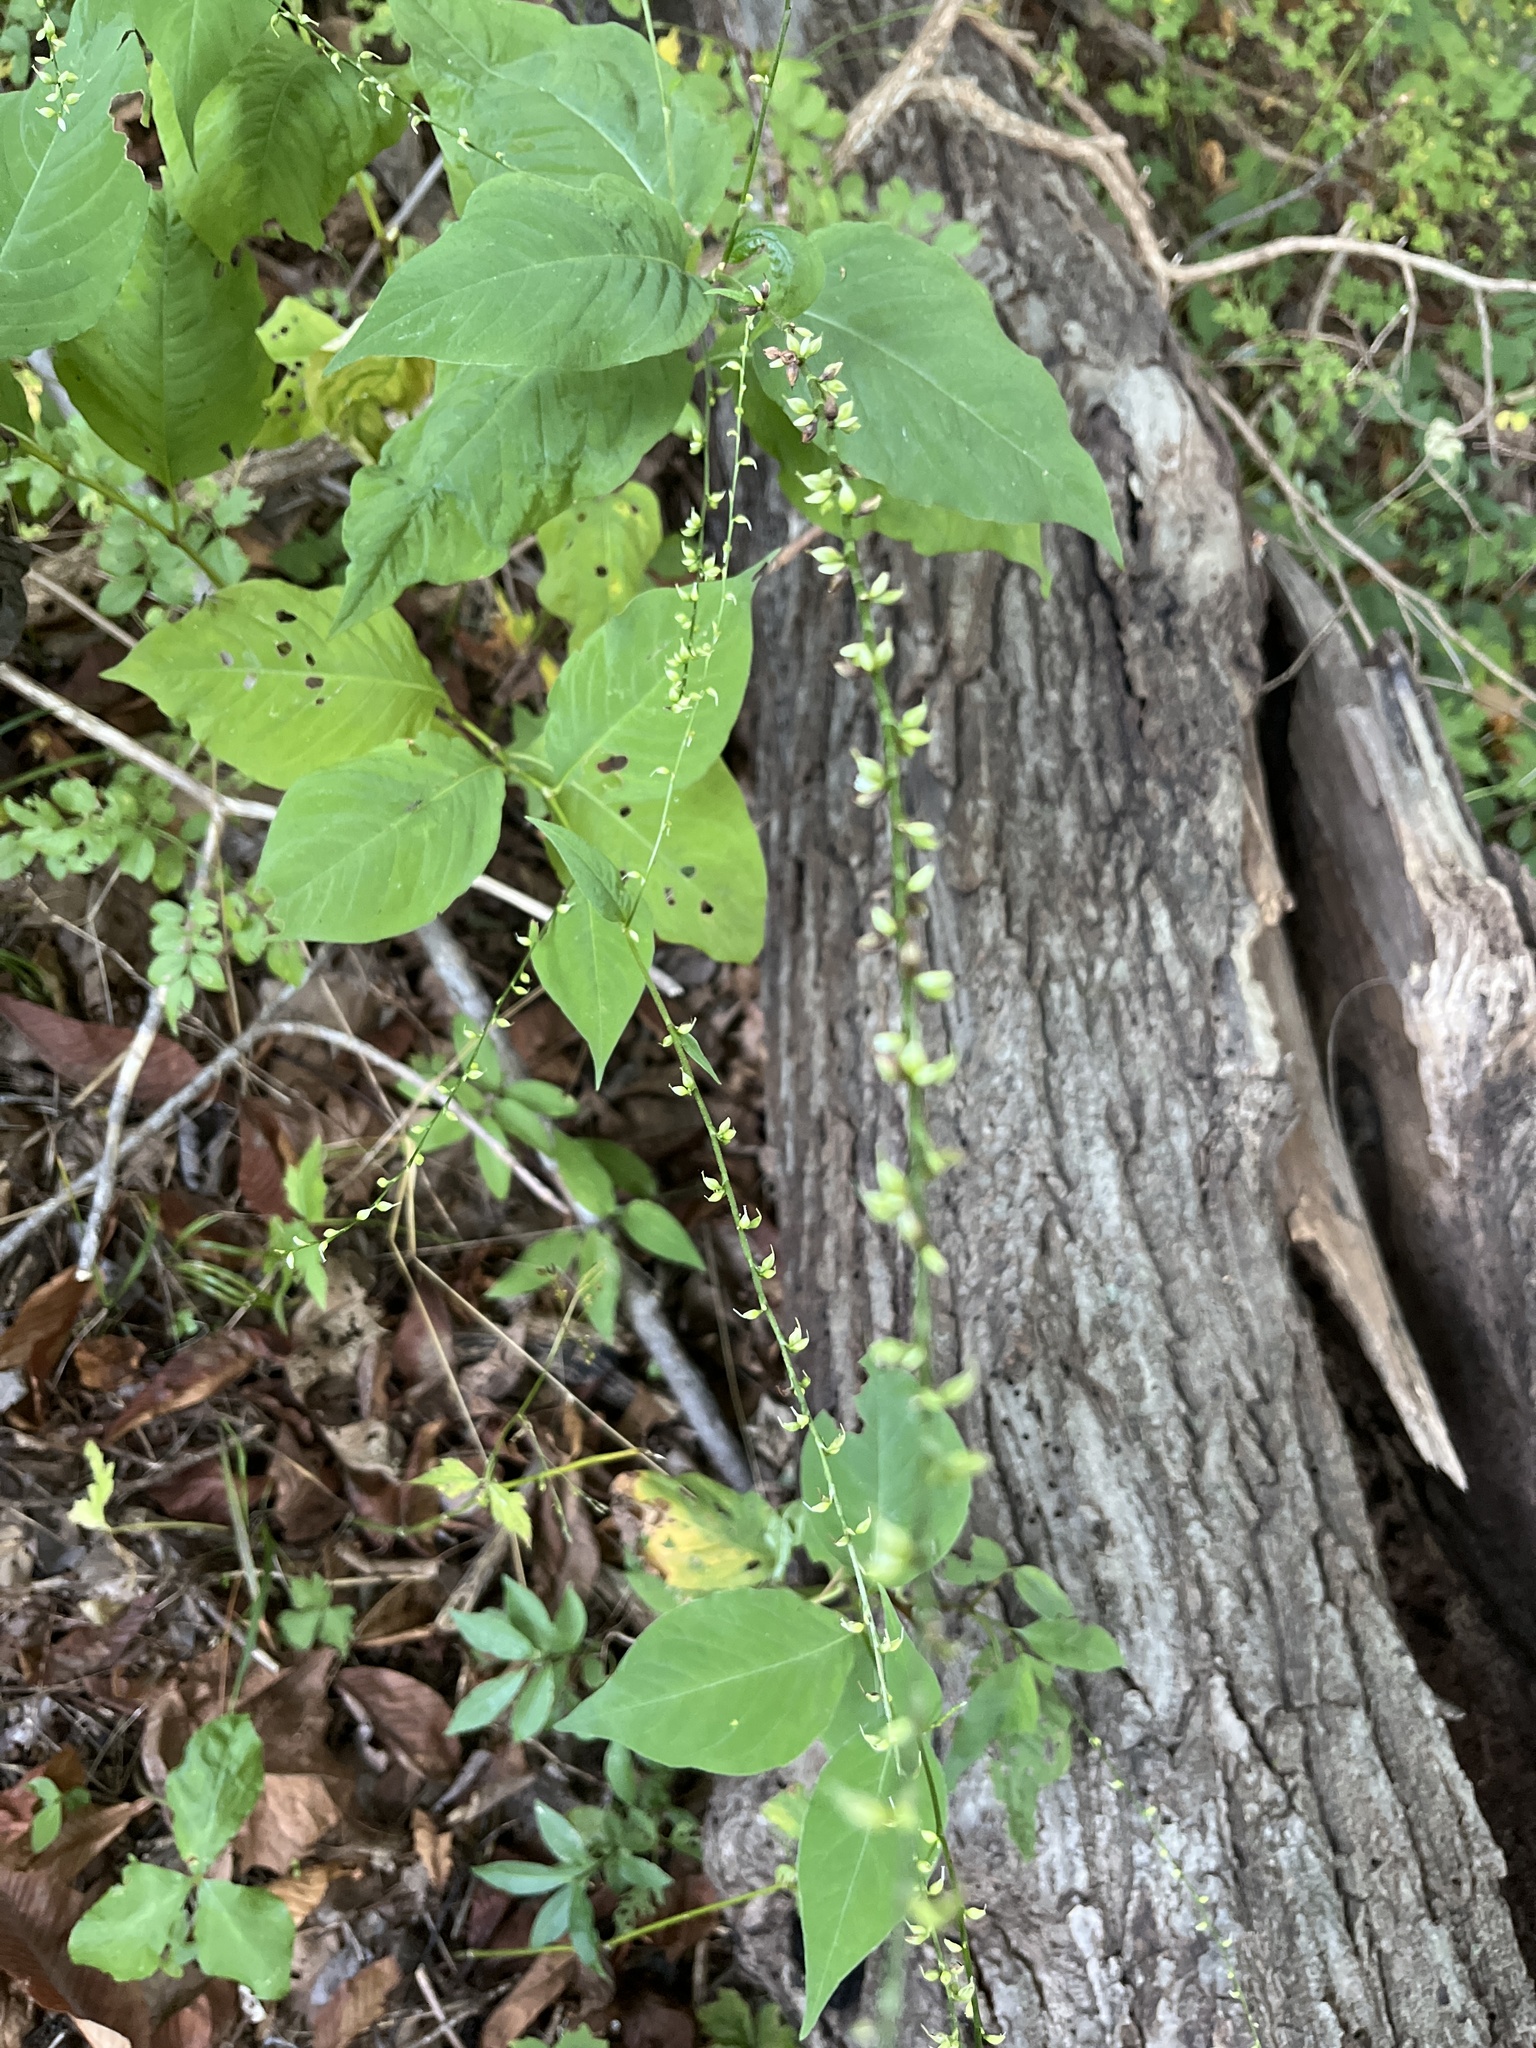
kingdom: Plantae
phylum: Tracheophyta
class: Magnoliopsida
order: Caryophyllales
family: Polygonaceae
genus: Persicaria
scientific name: Persicaria virginiana
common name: Jumpseed
